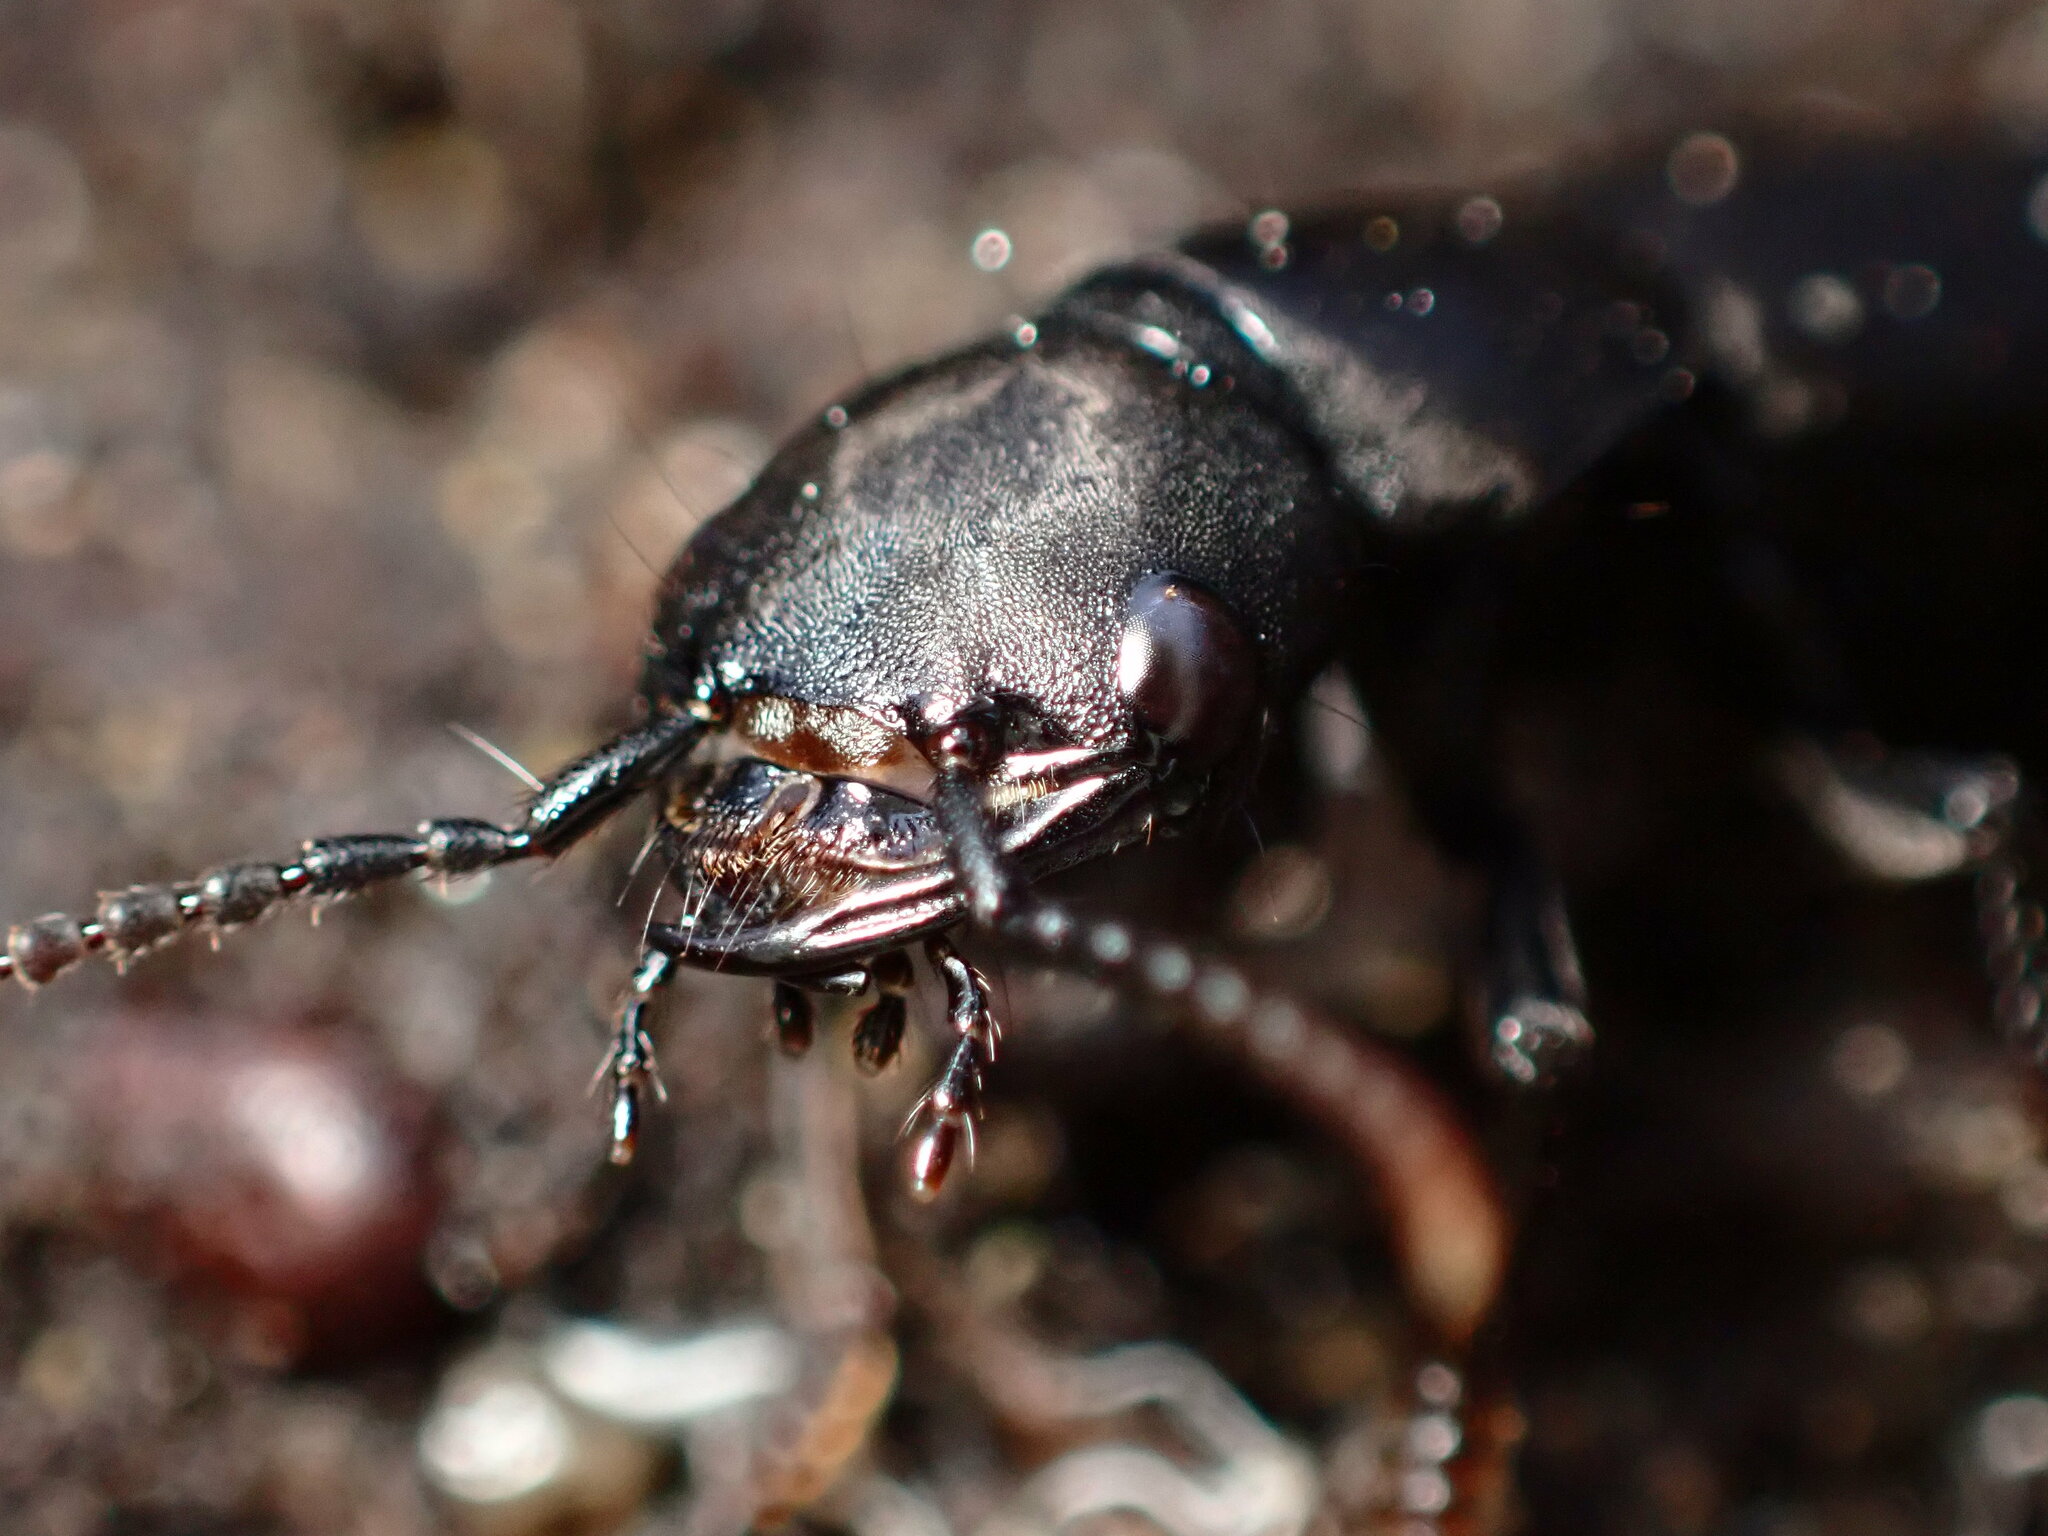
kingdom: Animalia
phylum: Arthropoda
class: Insecta
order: Coleoptera
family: Staphylinidae
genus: Ocypus
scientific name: Ocypus olens
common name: Devil's coach-horse
